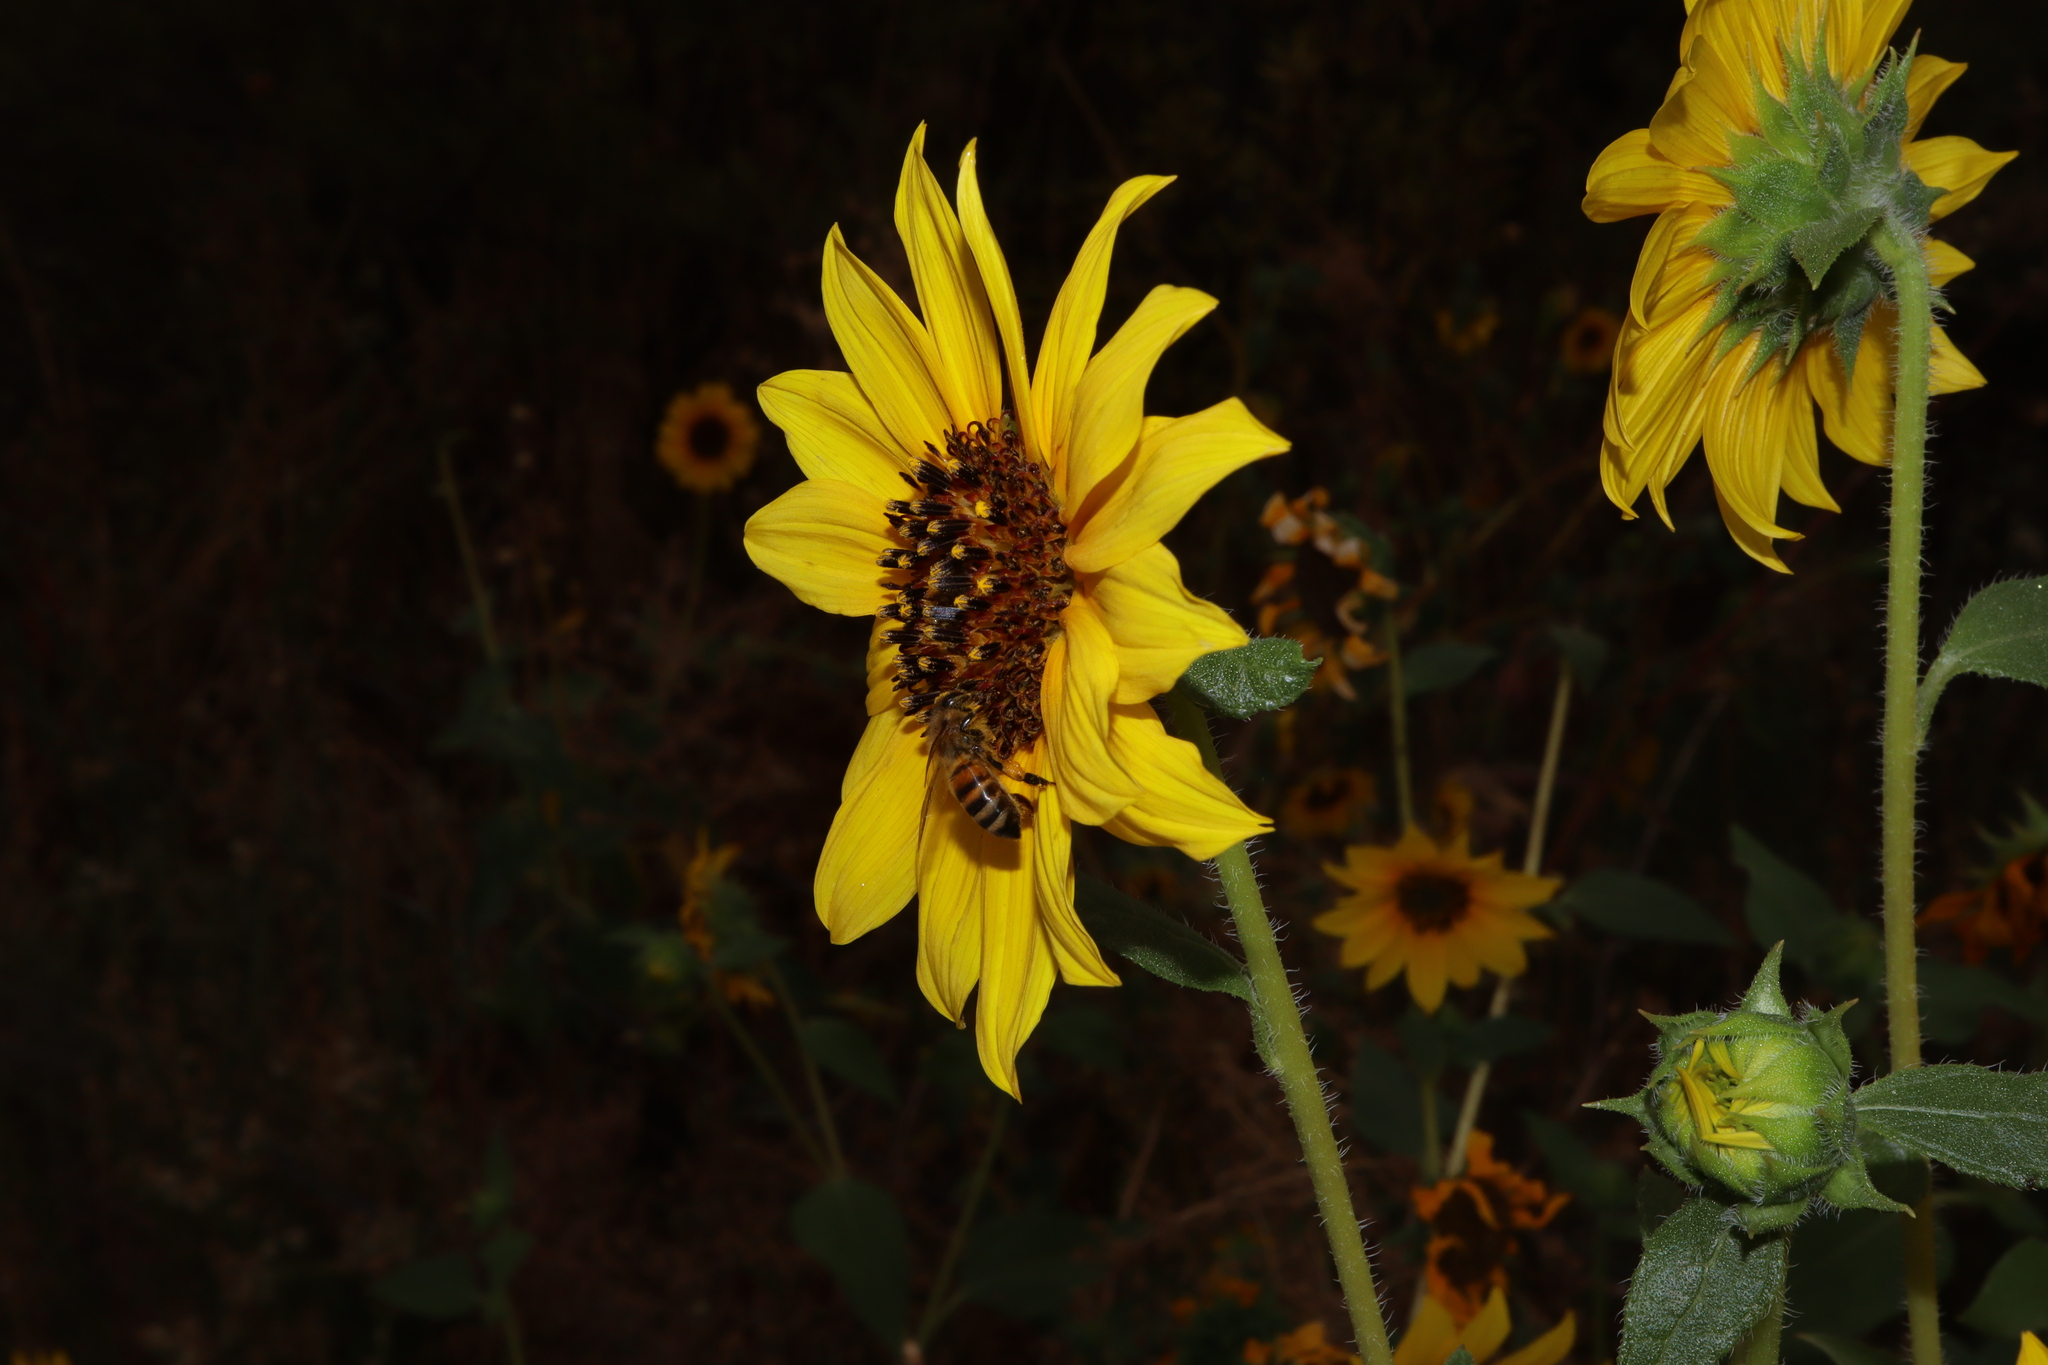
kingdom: Animalia
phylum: Arthropoda
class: Insecta
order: Hymenoptera
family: Apidae
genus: Apis
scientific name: Apis mellifera
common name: Honey bee
